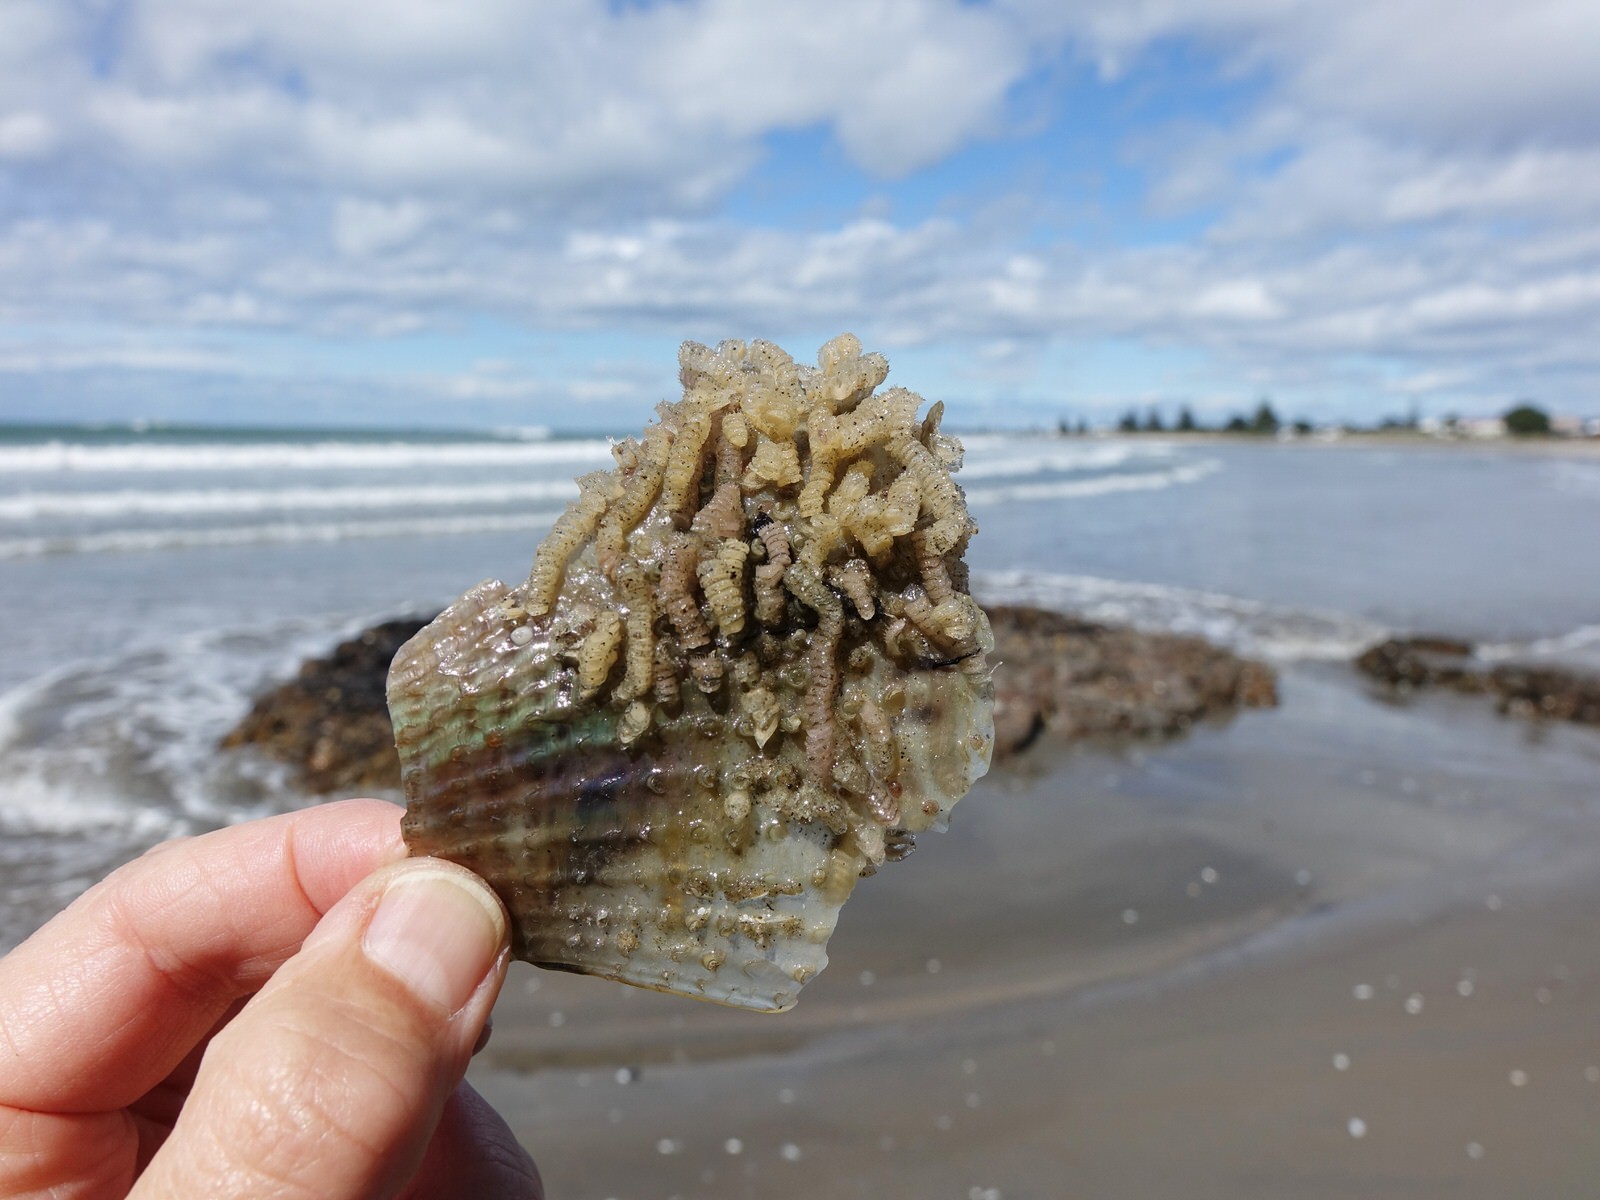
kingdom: Animalia
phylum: Mollusca
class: Gastropoda
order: Neogastropoda
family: Muricidae
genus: Poirieria
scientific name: Poirieria zelandica
